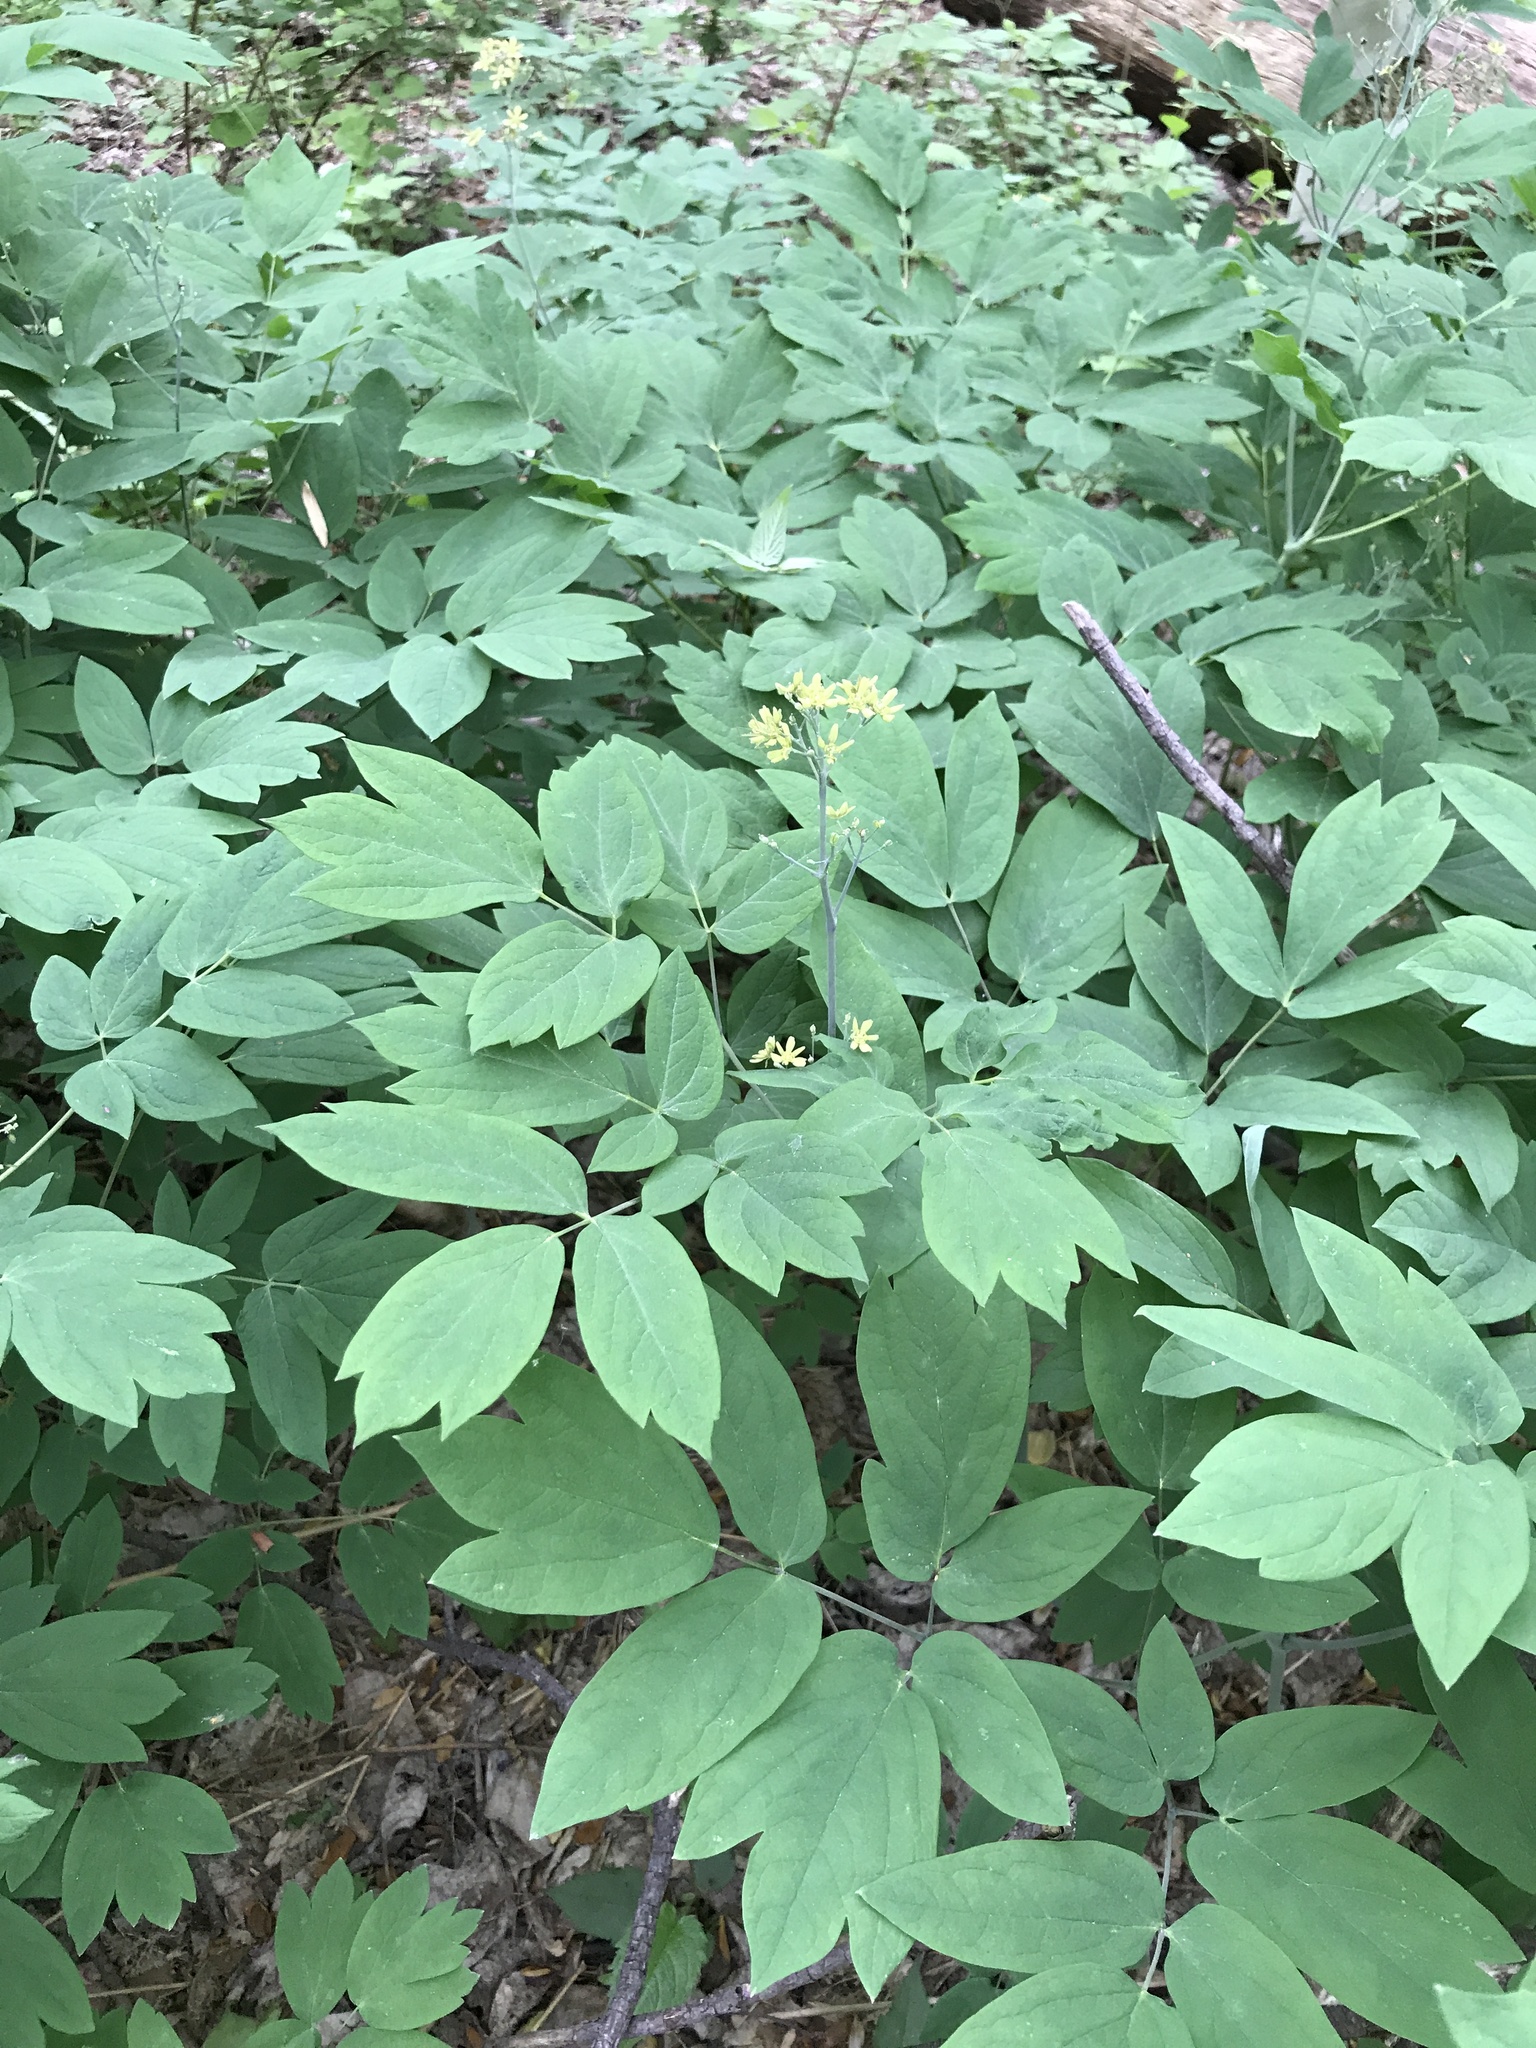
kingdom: Plantae
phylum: Tracheophyta
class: Magnoliopsida
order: Ranunculales
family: Berberidaceae
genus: Caulophyllum
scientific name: Caulophyllum thalictroides
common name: Blue cohosh
